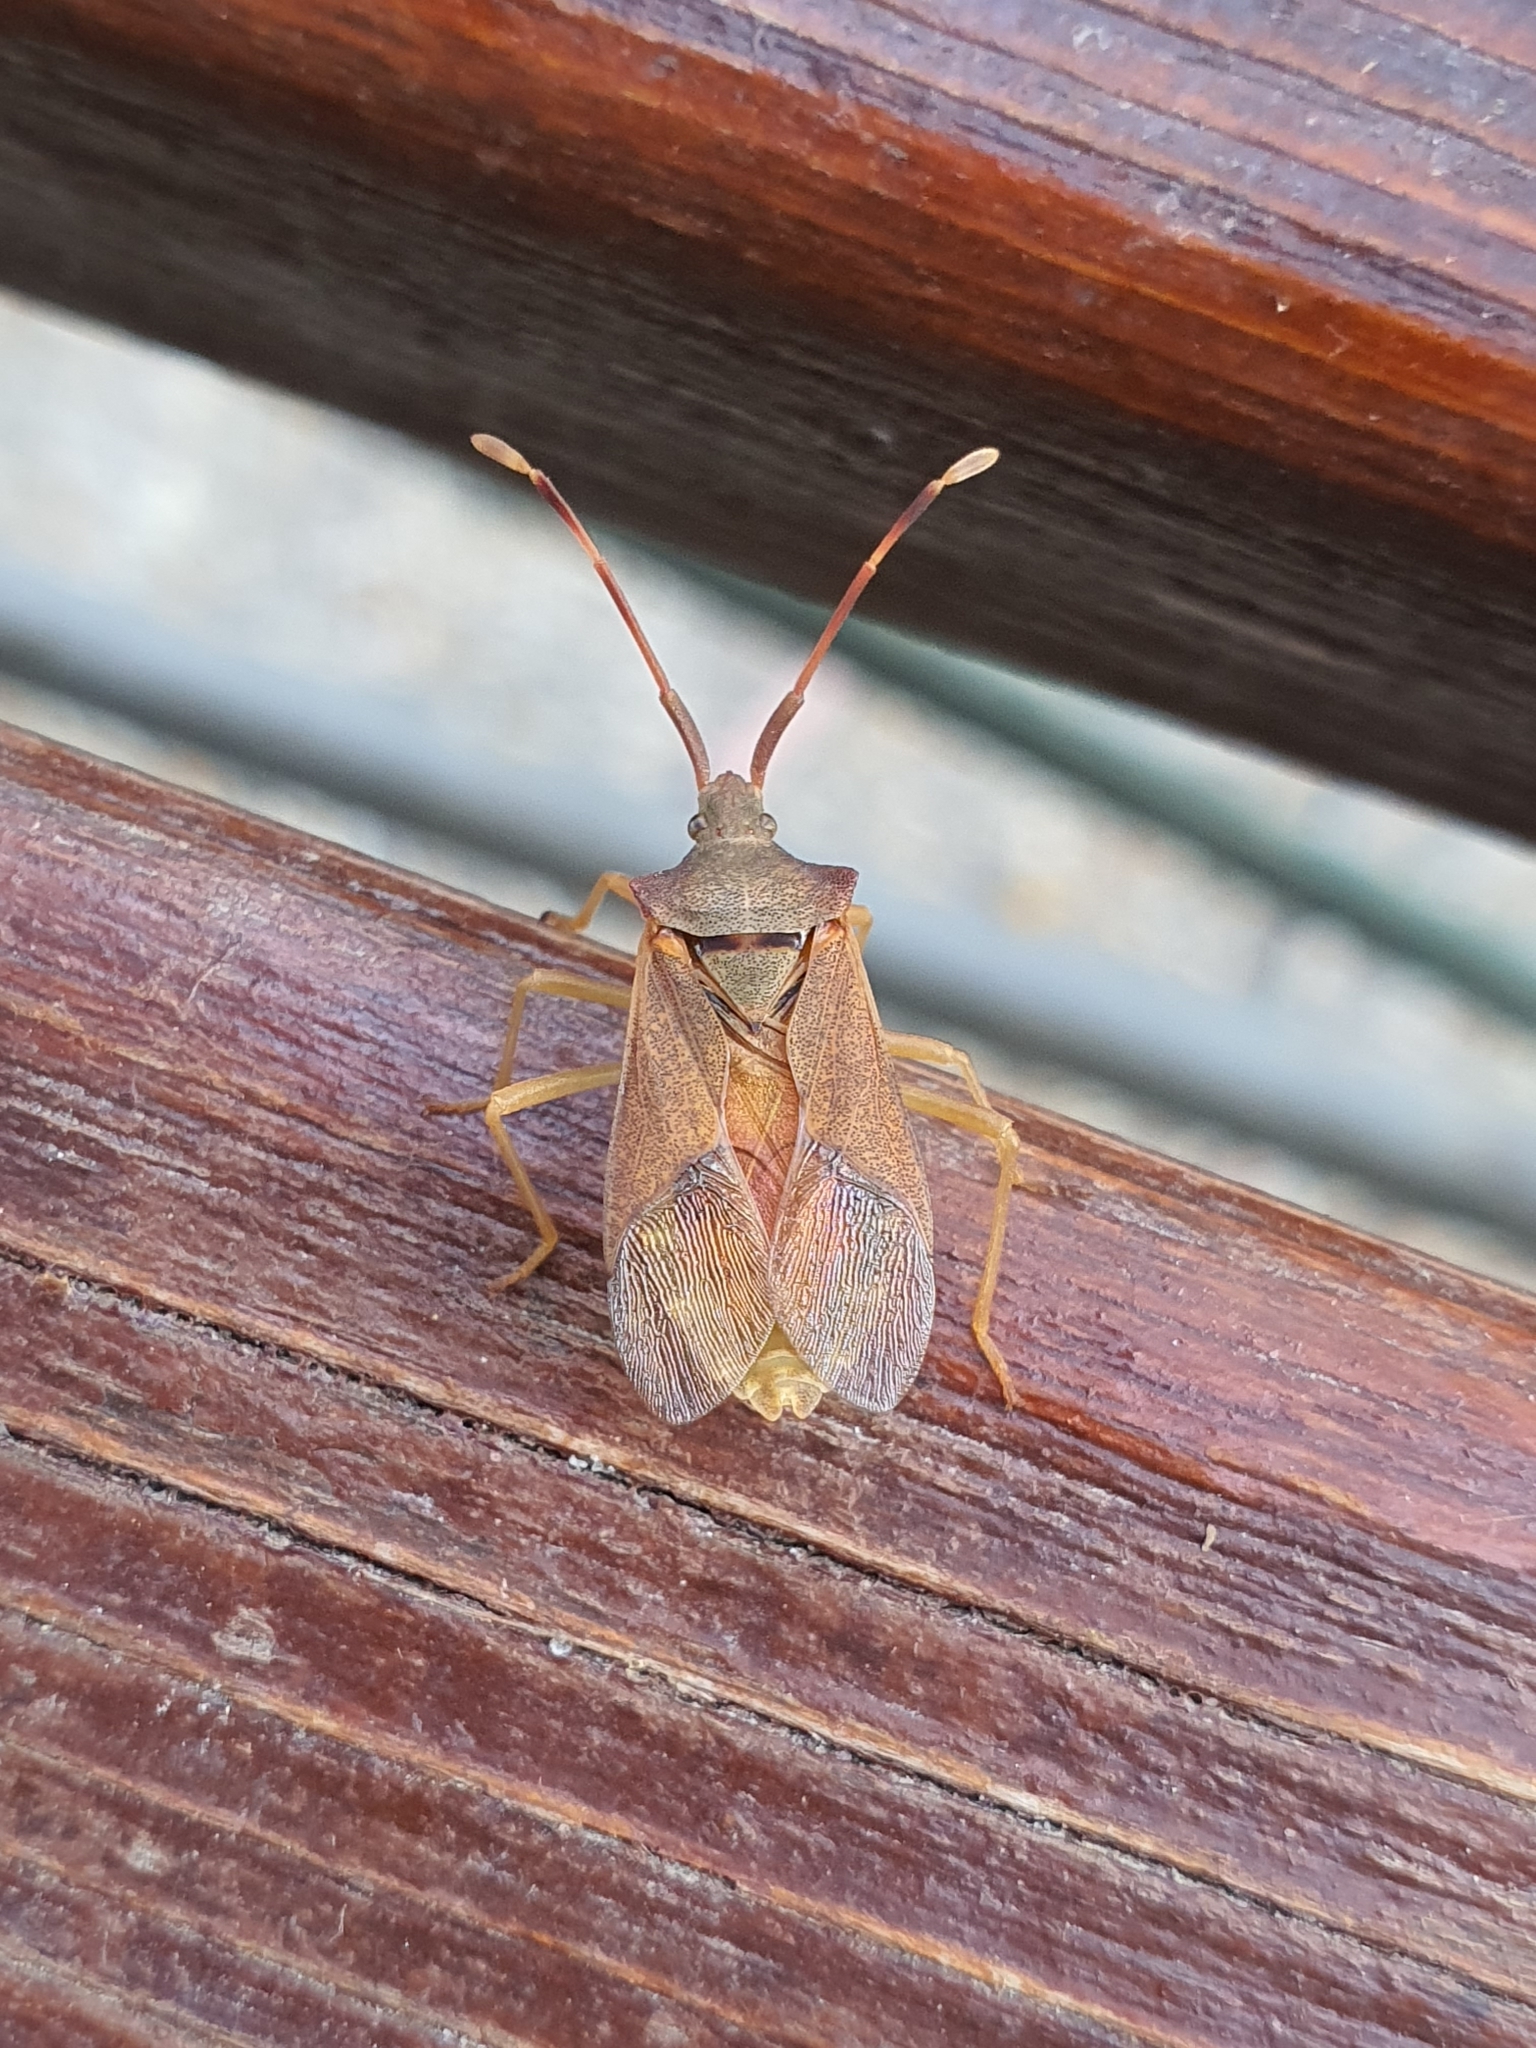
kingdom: Animalia
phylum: Arthropoda
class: Insecta
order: Hemiptera
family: Coreidae
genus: Gonocerus
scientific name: Gonocerus acuteangulatus
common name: Box bug
